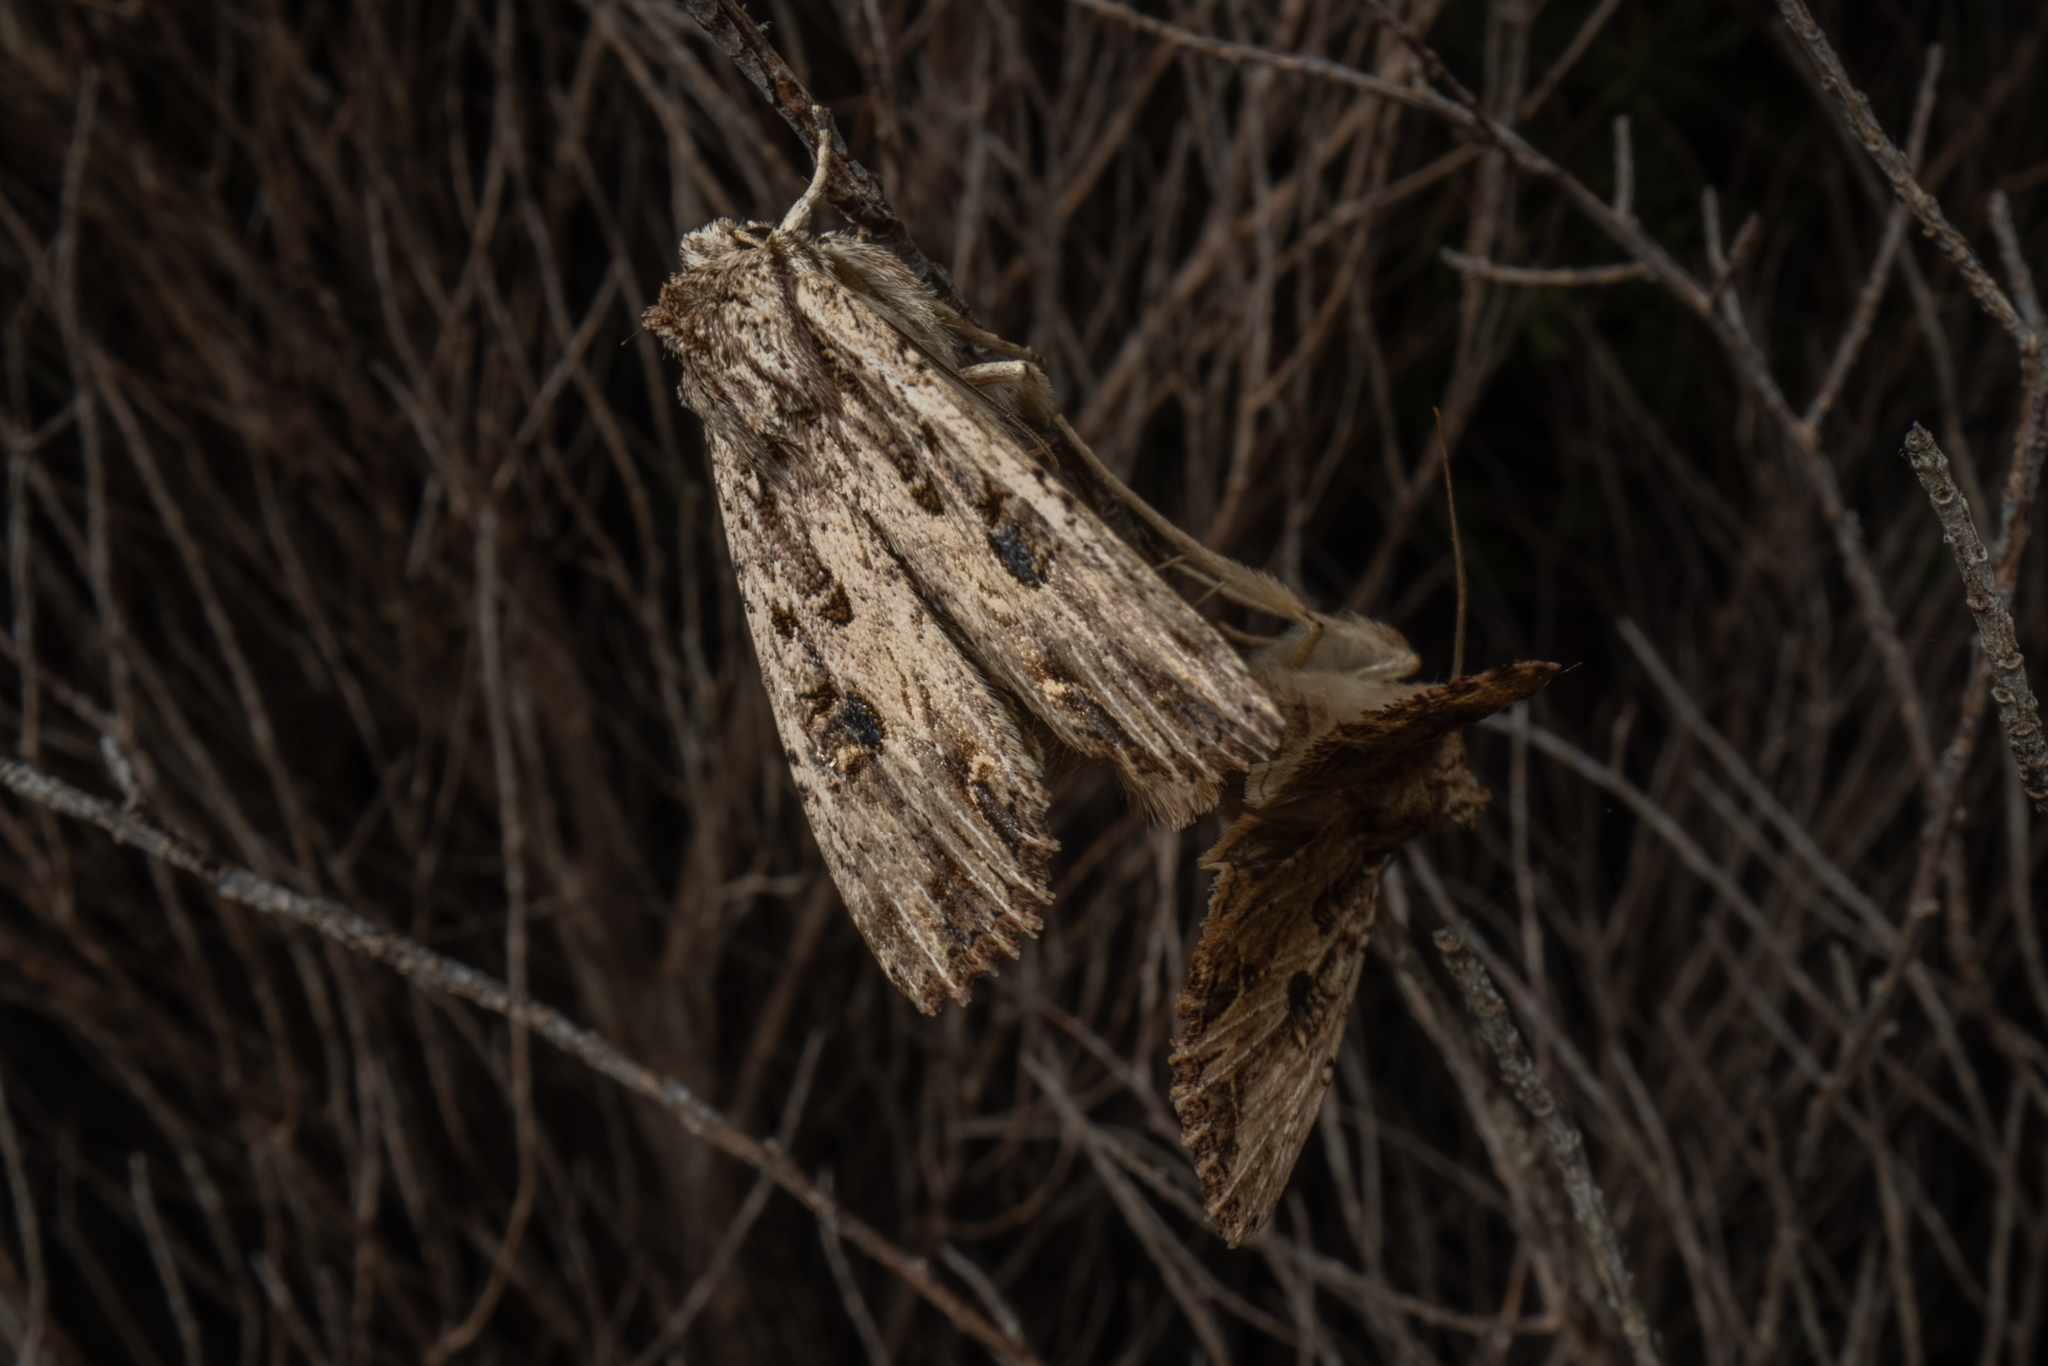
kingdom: Animalia
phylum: Arthropoda
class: Insecta
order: Lepidoptera
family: Noctuidae
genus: Ichneutica
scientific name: Ichneutica lignana
